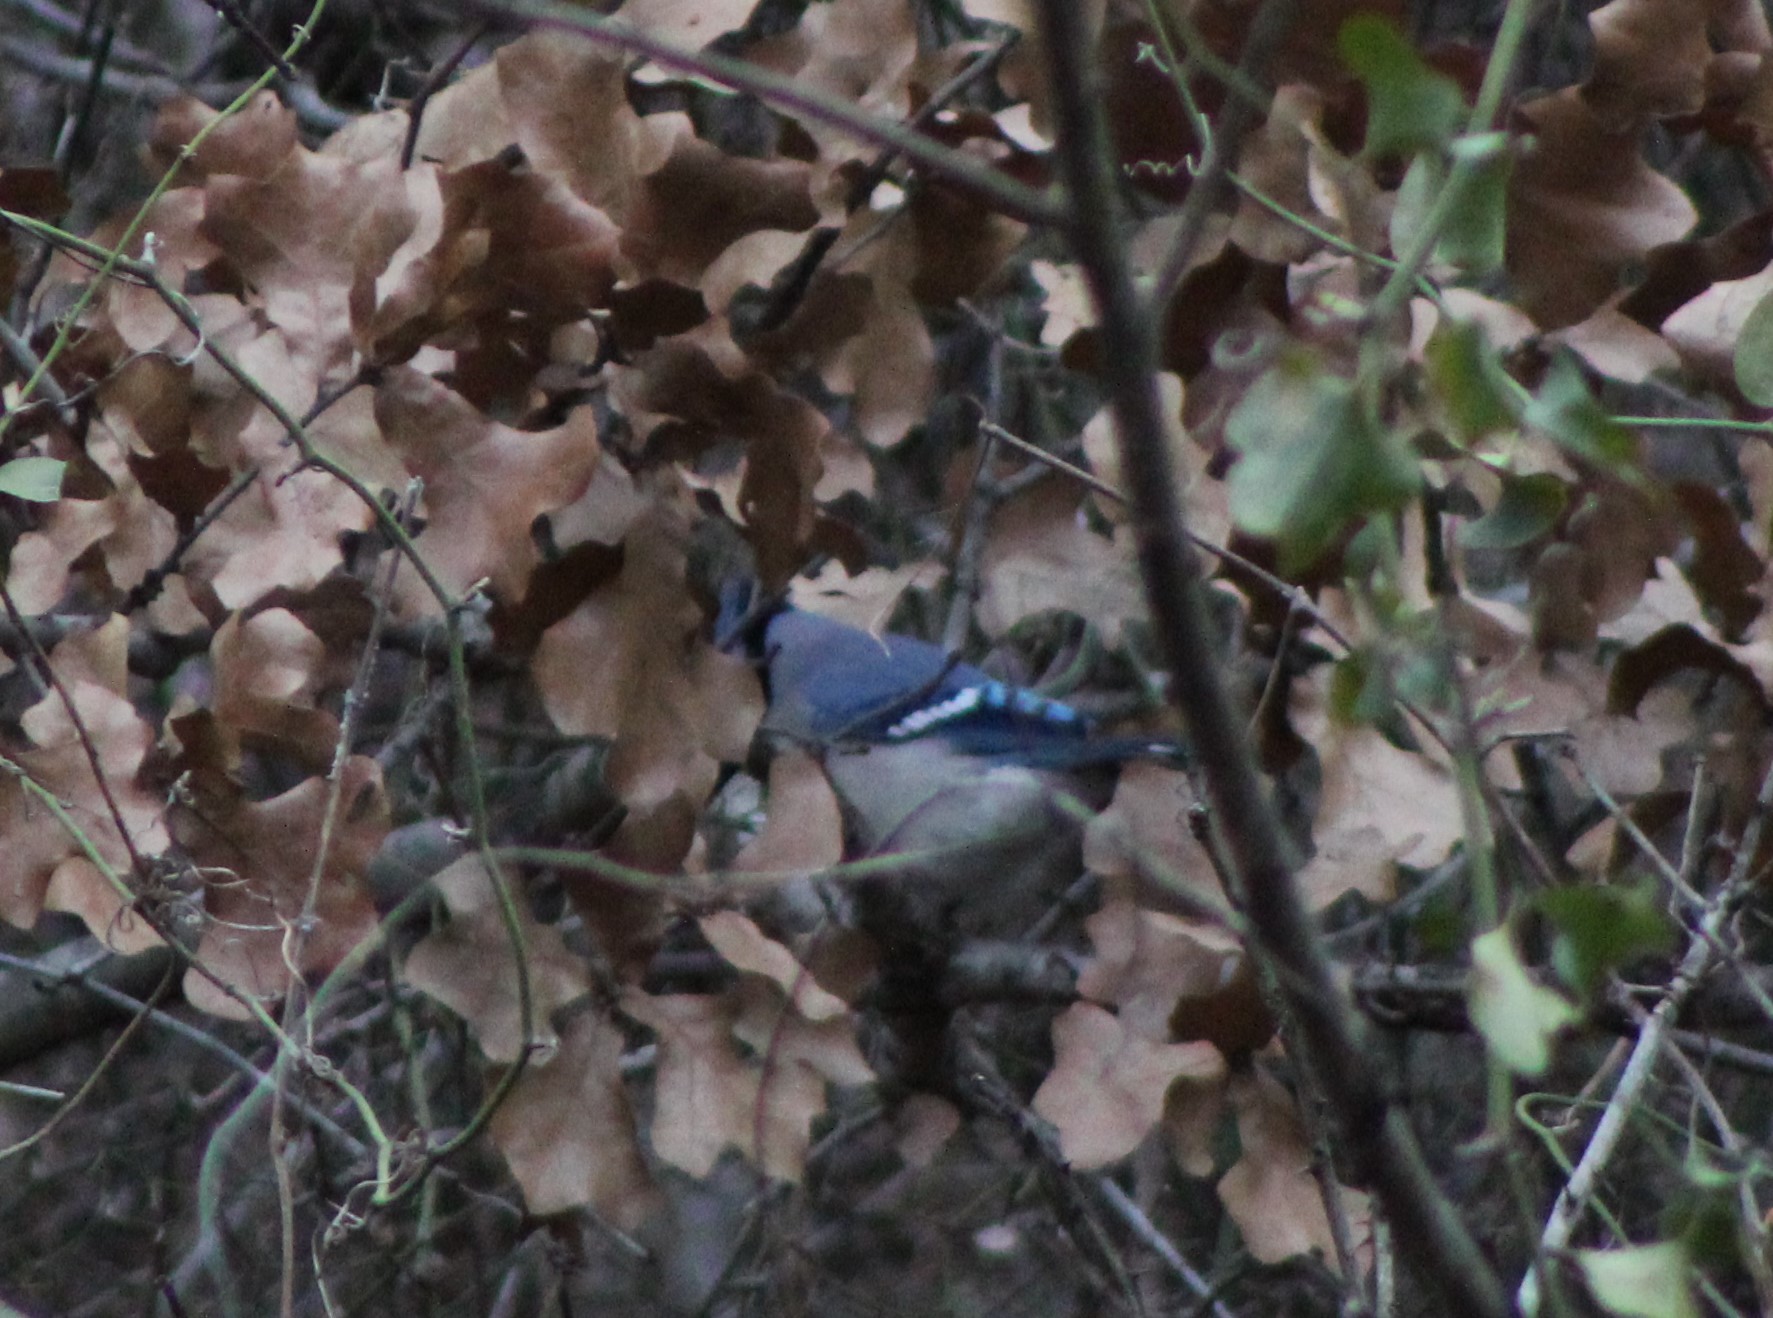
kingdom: Animalia
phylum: Chordata
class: Aves
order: Passeriformes
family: Corvidae
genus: Cyanocitta
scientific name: Cyanocitta cristata
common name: Blue jay
